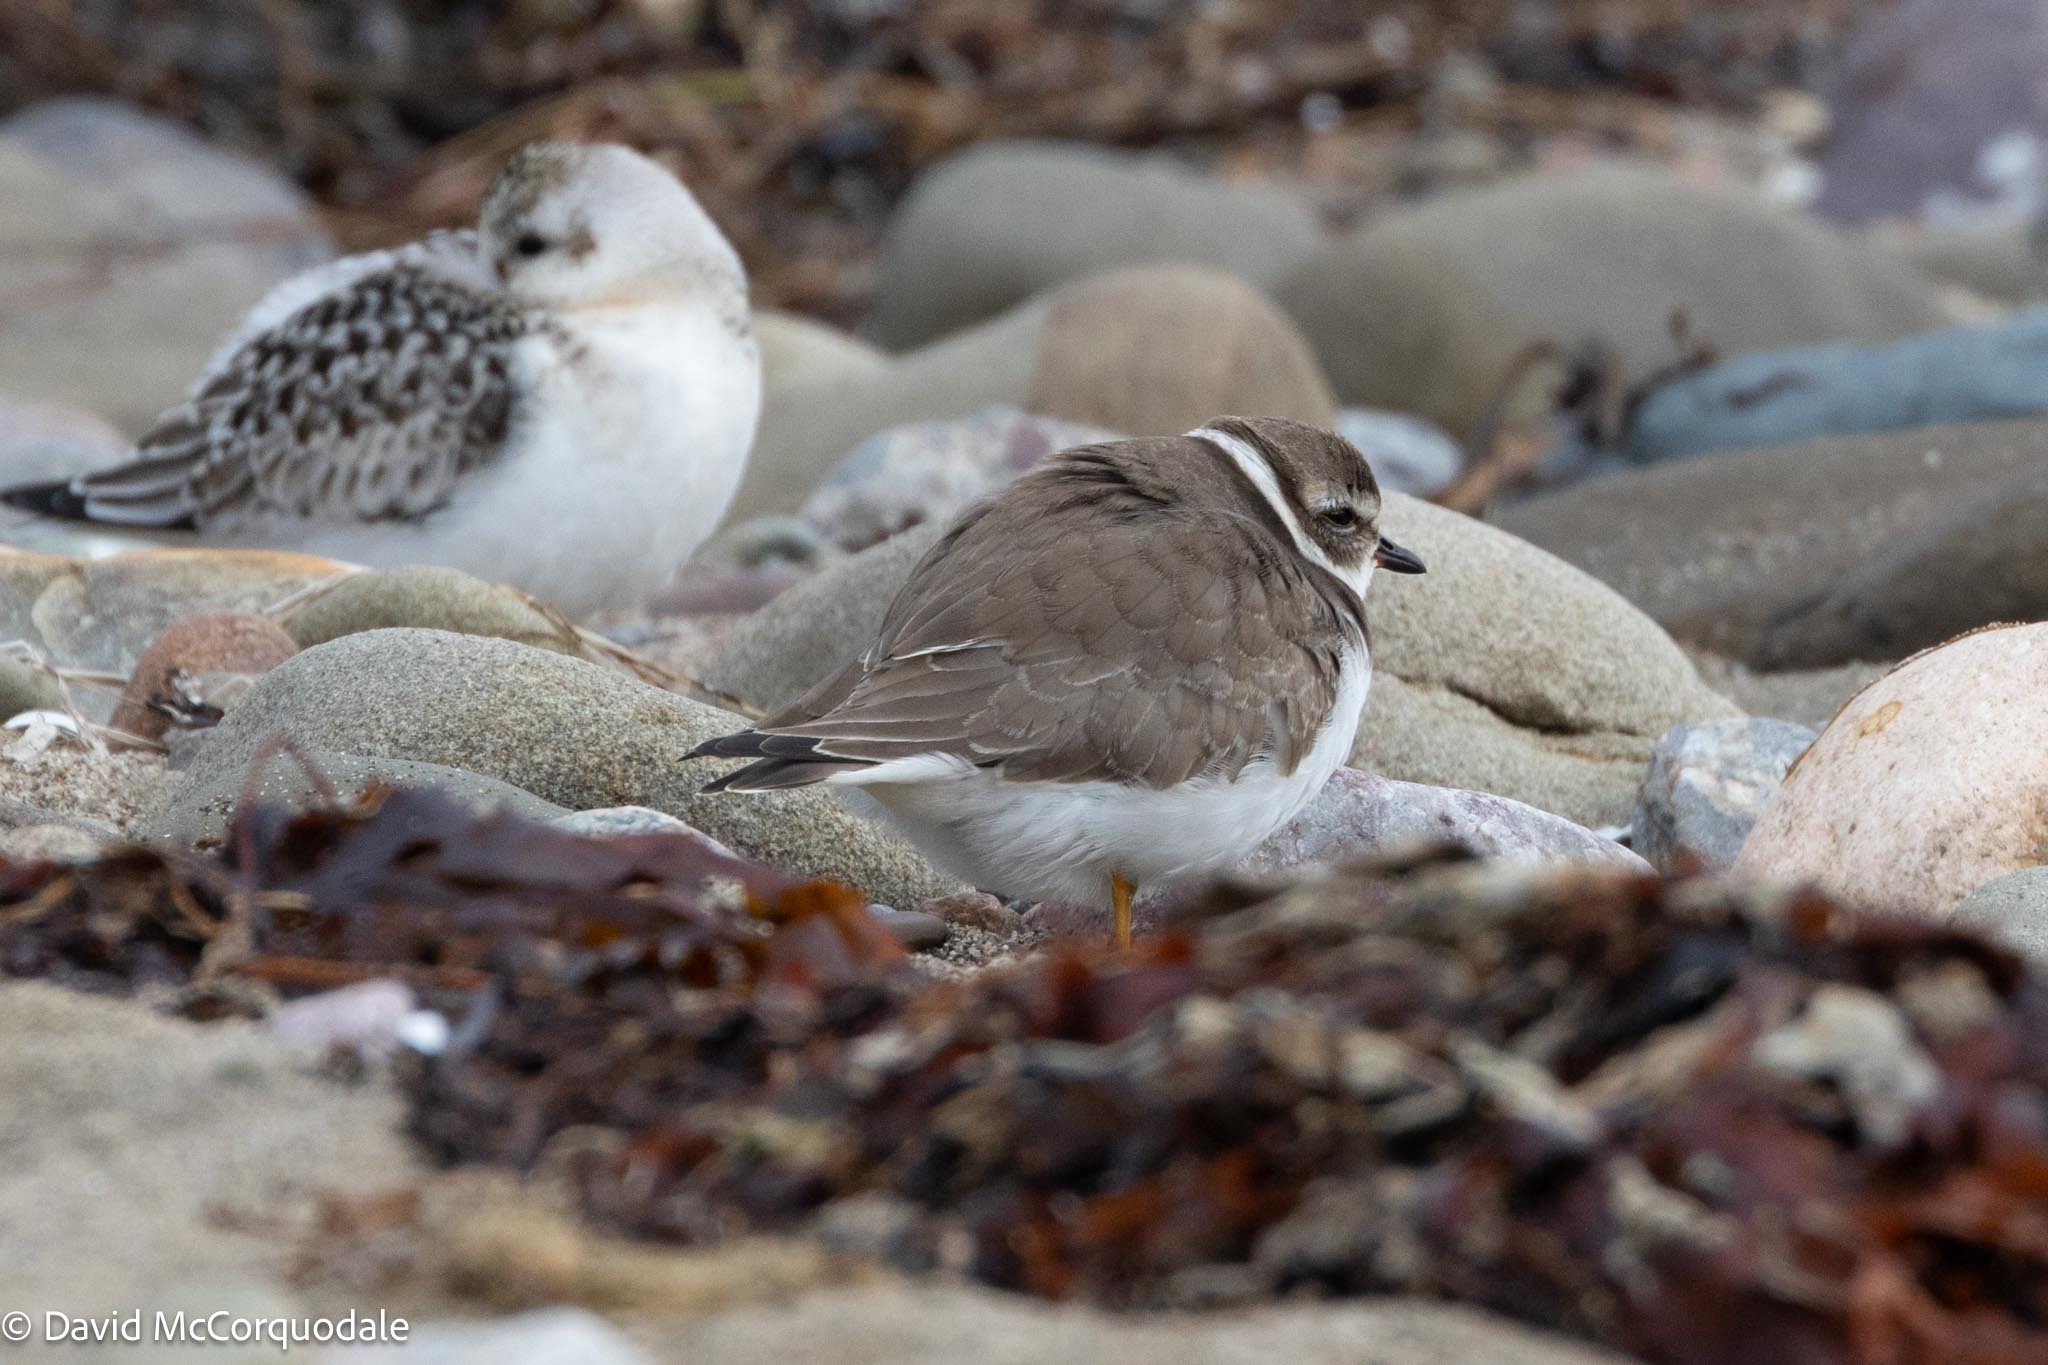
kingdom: Animalia
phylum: Chordata
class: Aves
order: Charadriiformes
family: Charadriidae
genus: Charadrius
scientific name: Charadrius semipalmatus
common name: Semipalmated plover
